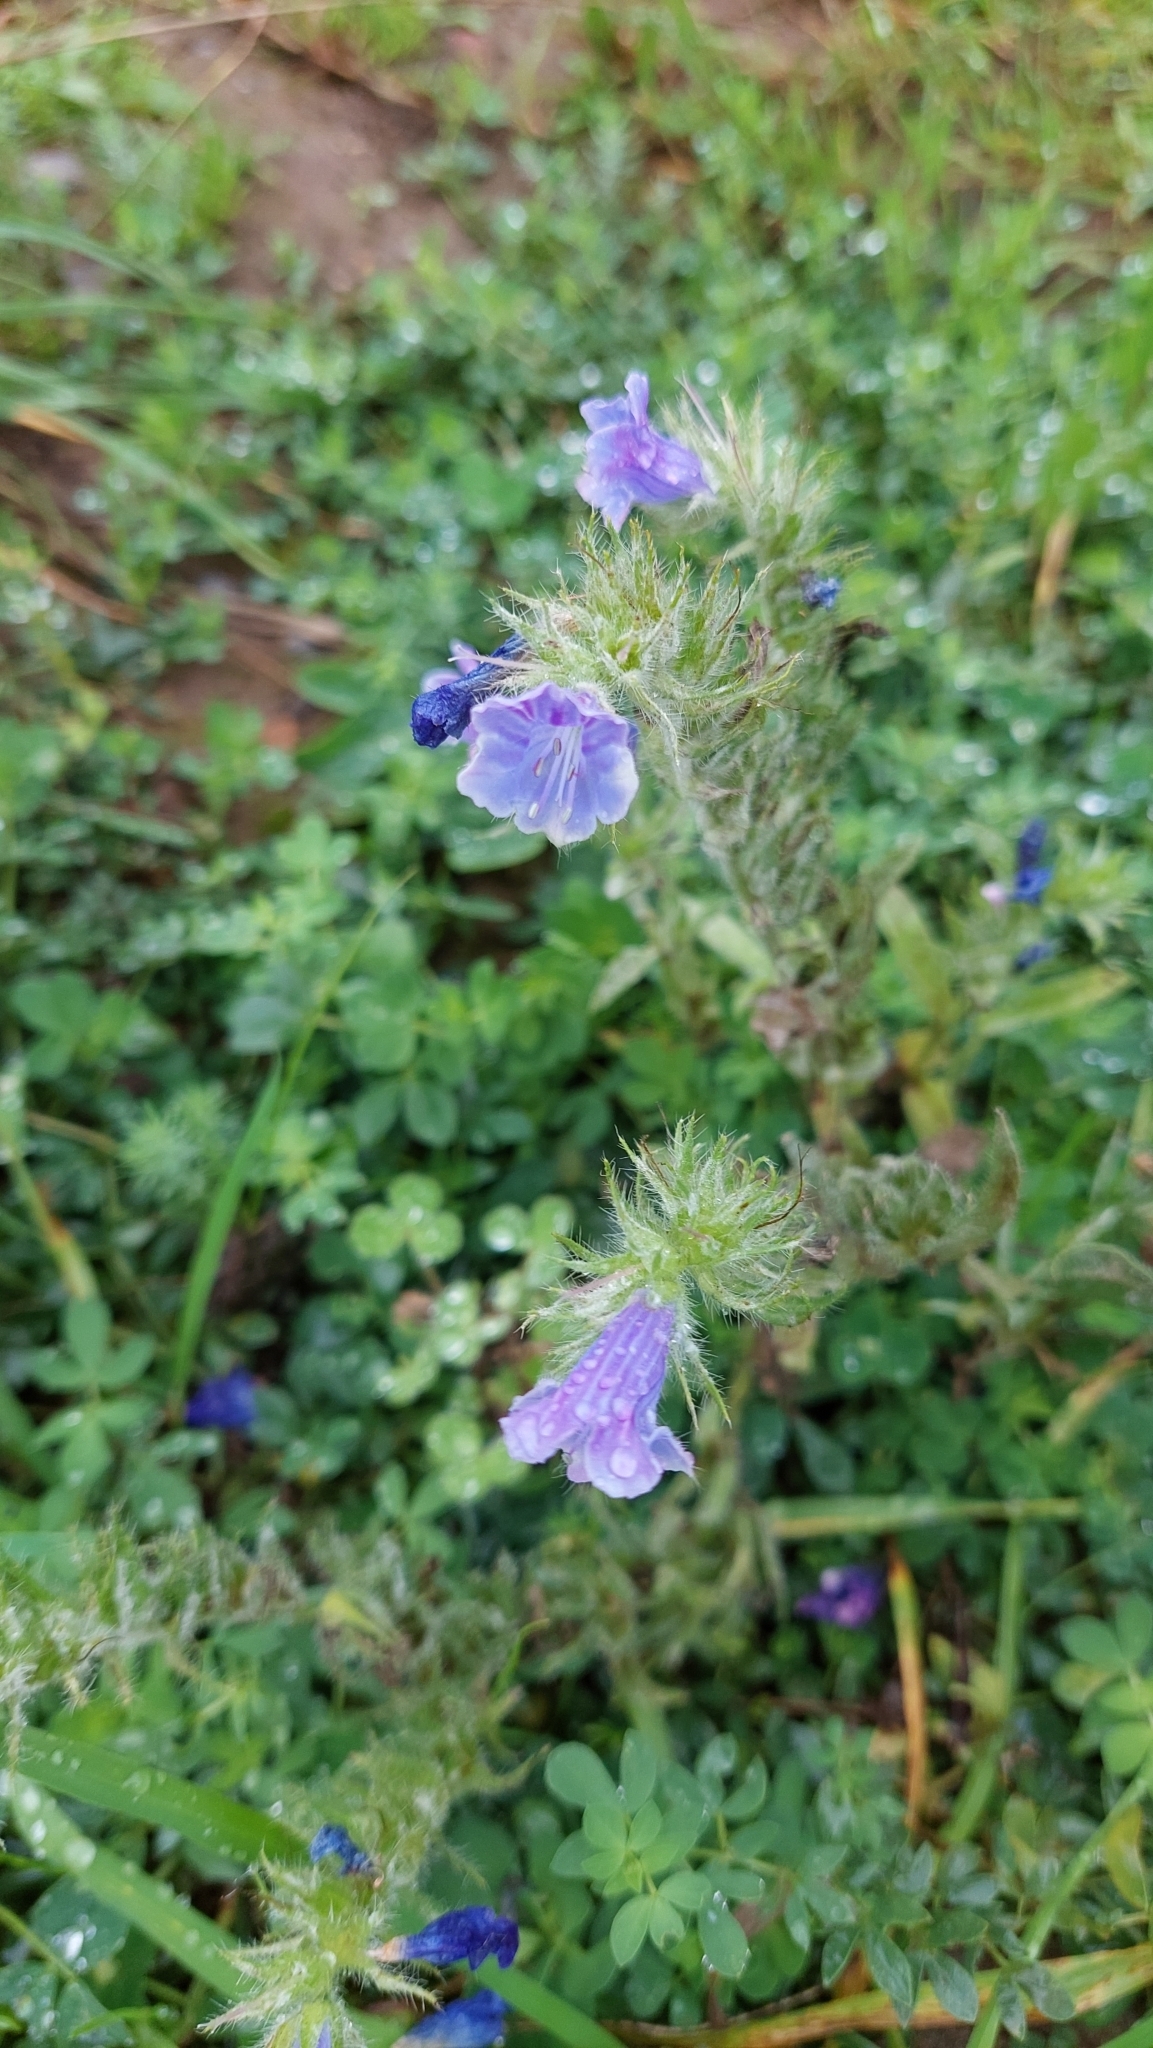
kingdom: Plantae
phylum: Tracheophyta
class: Magnoliopsida
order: Boraginales
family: Boraginaceae
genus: Echium
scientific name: Echium plantagineum
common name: Purple viper's-bugloss
